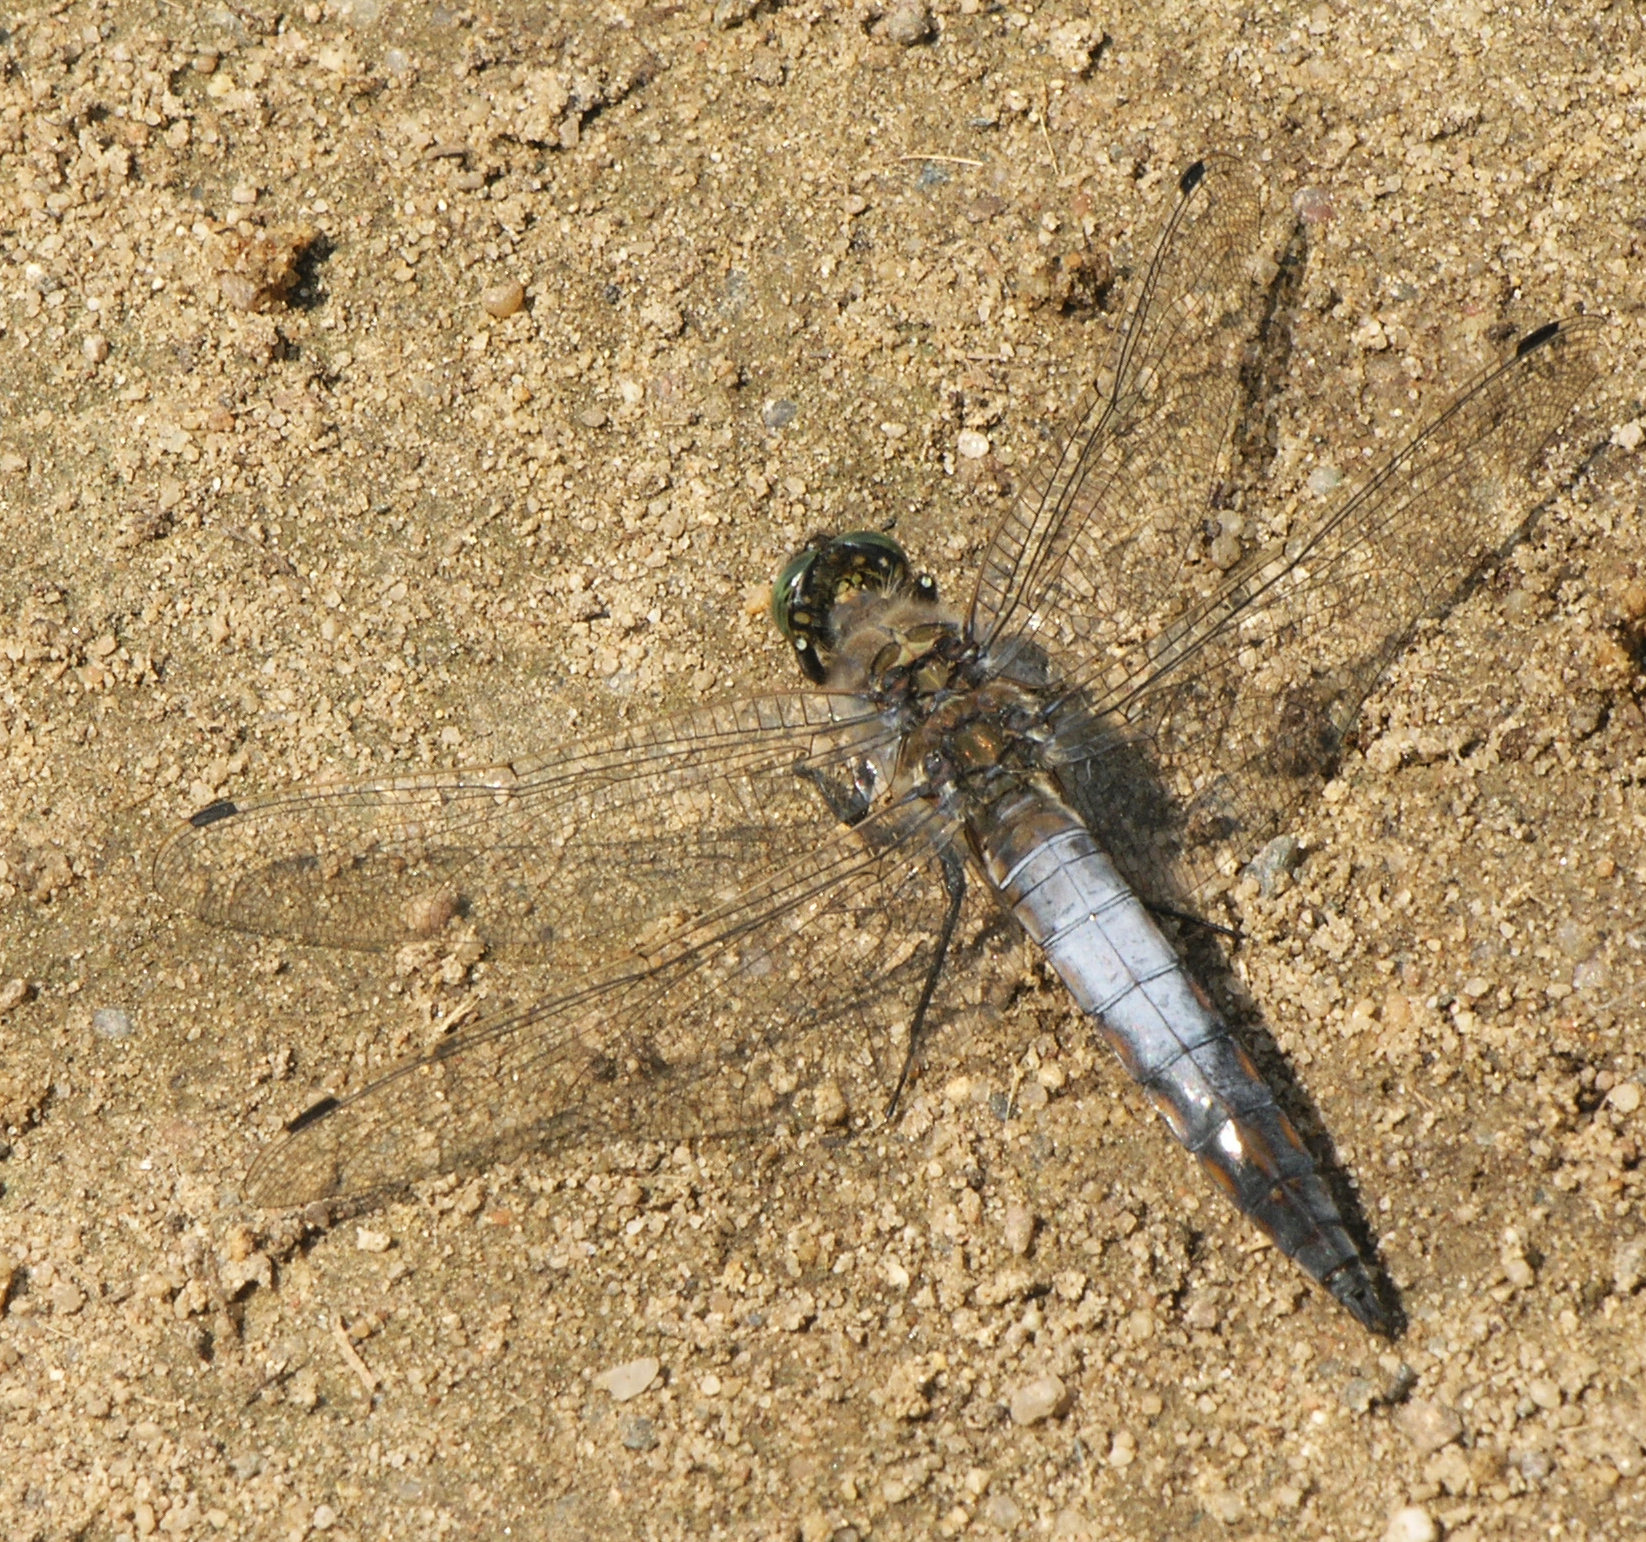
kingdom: Animalia
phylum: Arthropoda
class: Insecta
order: Odonata
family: Libellulidae
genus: Orthetrum
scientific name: Orthetrum cancellatum
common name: Black-tailed skimmer
